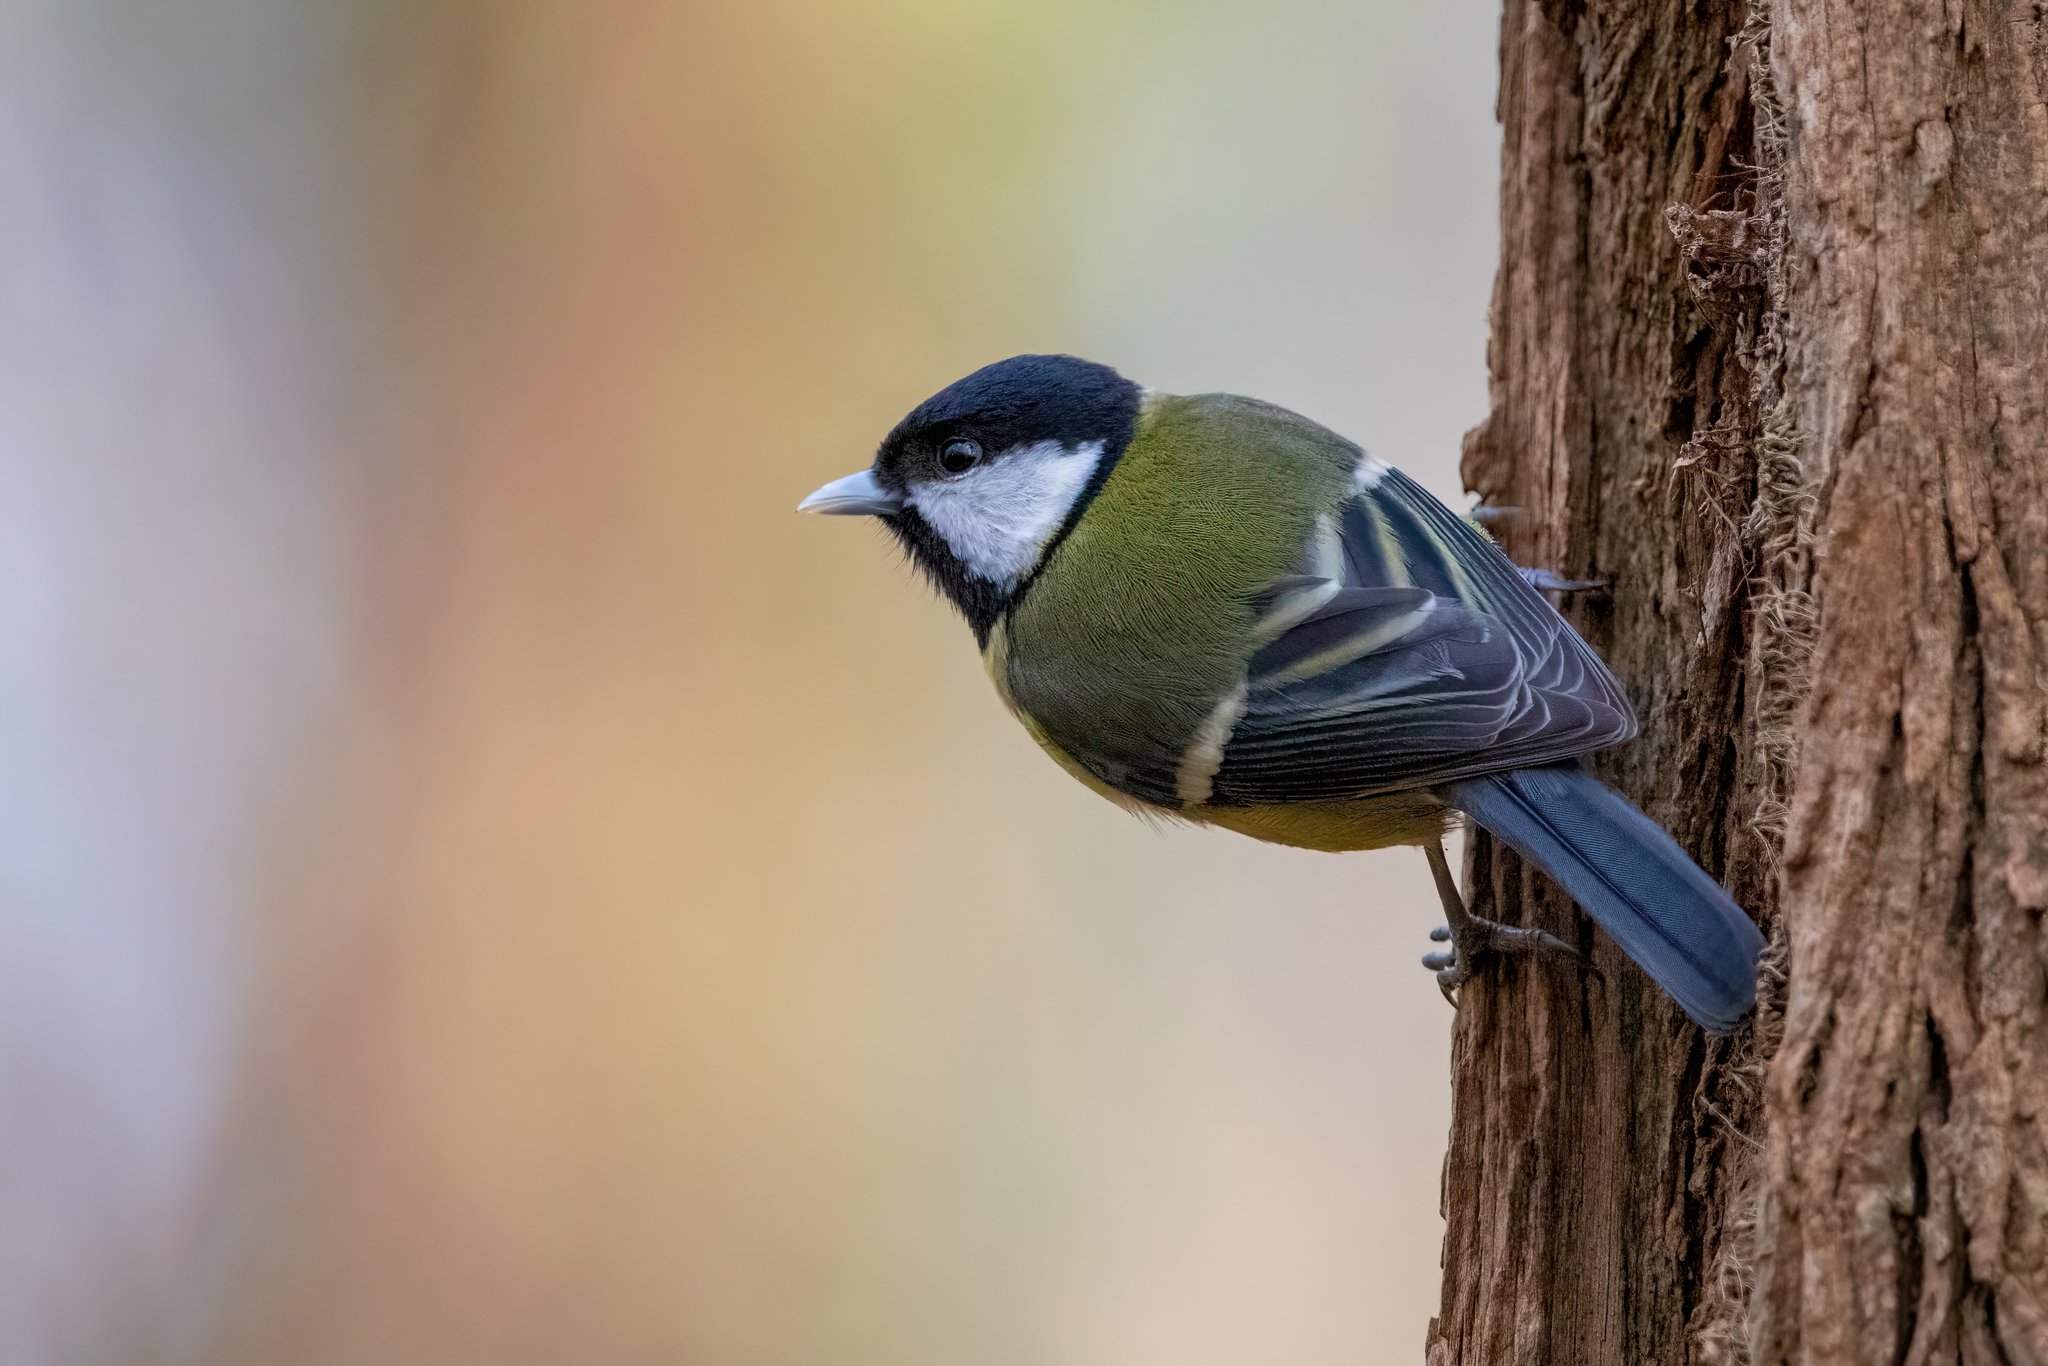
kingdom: Animalia
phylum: Chordata
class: Aves
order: Passeriformes
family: Paridae
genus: Parus
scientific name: Parus major
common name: Great tit
